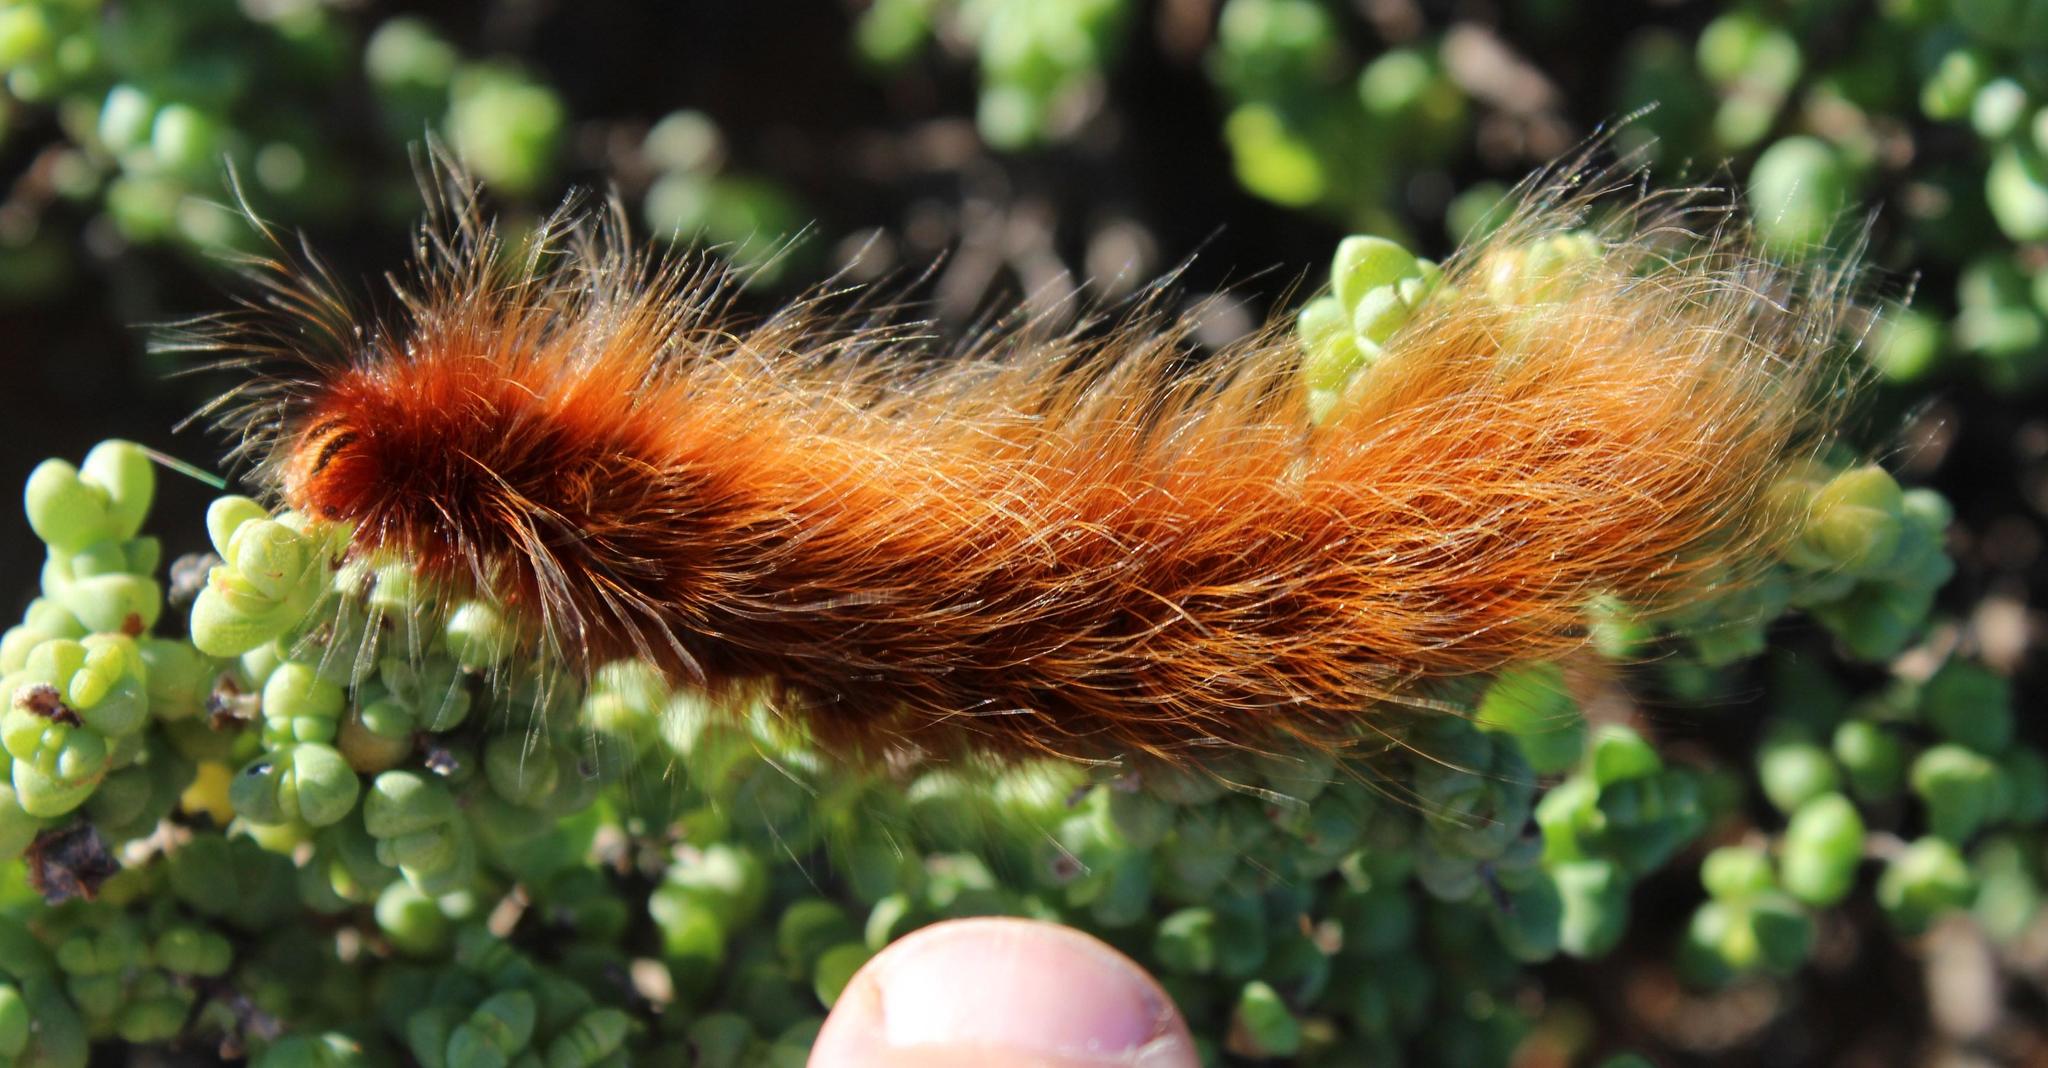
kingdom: Animalia
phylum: Arthropoda
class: Insecta
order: Lepidoptera
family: Lasiocampidae
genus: Mesocelis
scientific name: Mesocelis monticola
